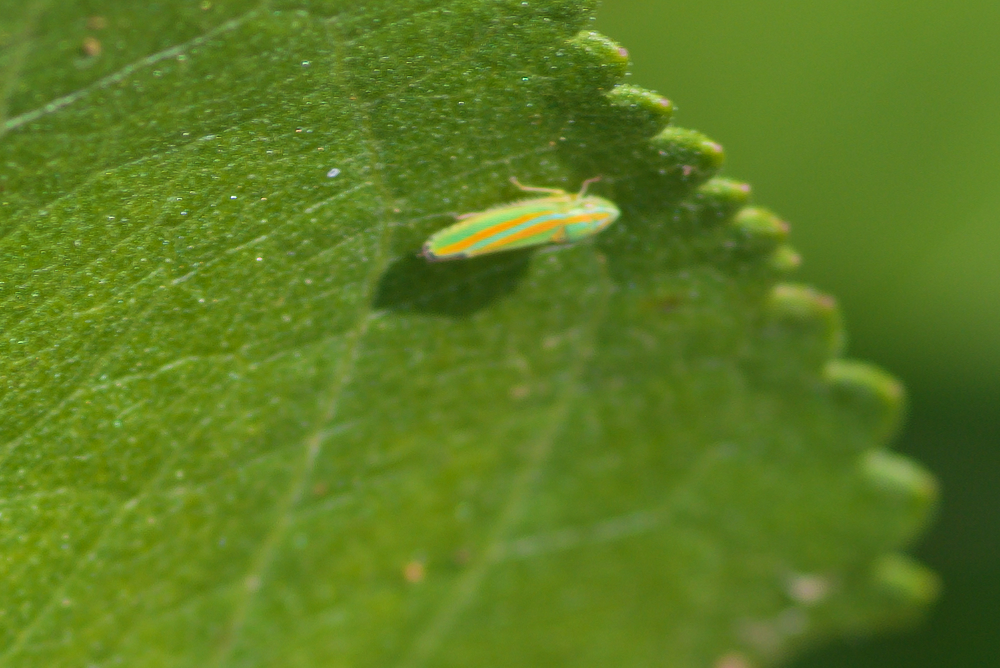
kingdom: Animalia
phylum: Arthropoda
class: Insecta
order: Hemiptera
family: Cicadellidae
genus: Graphocephala
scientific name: Graphocephala versuta
